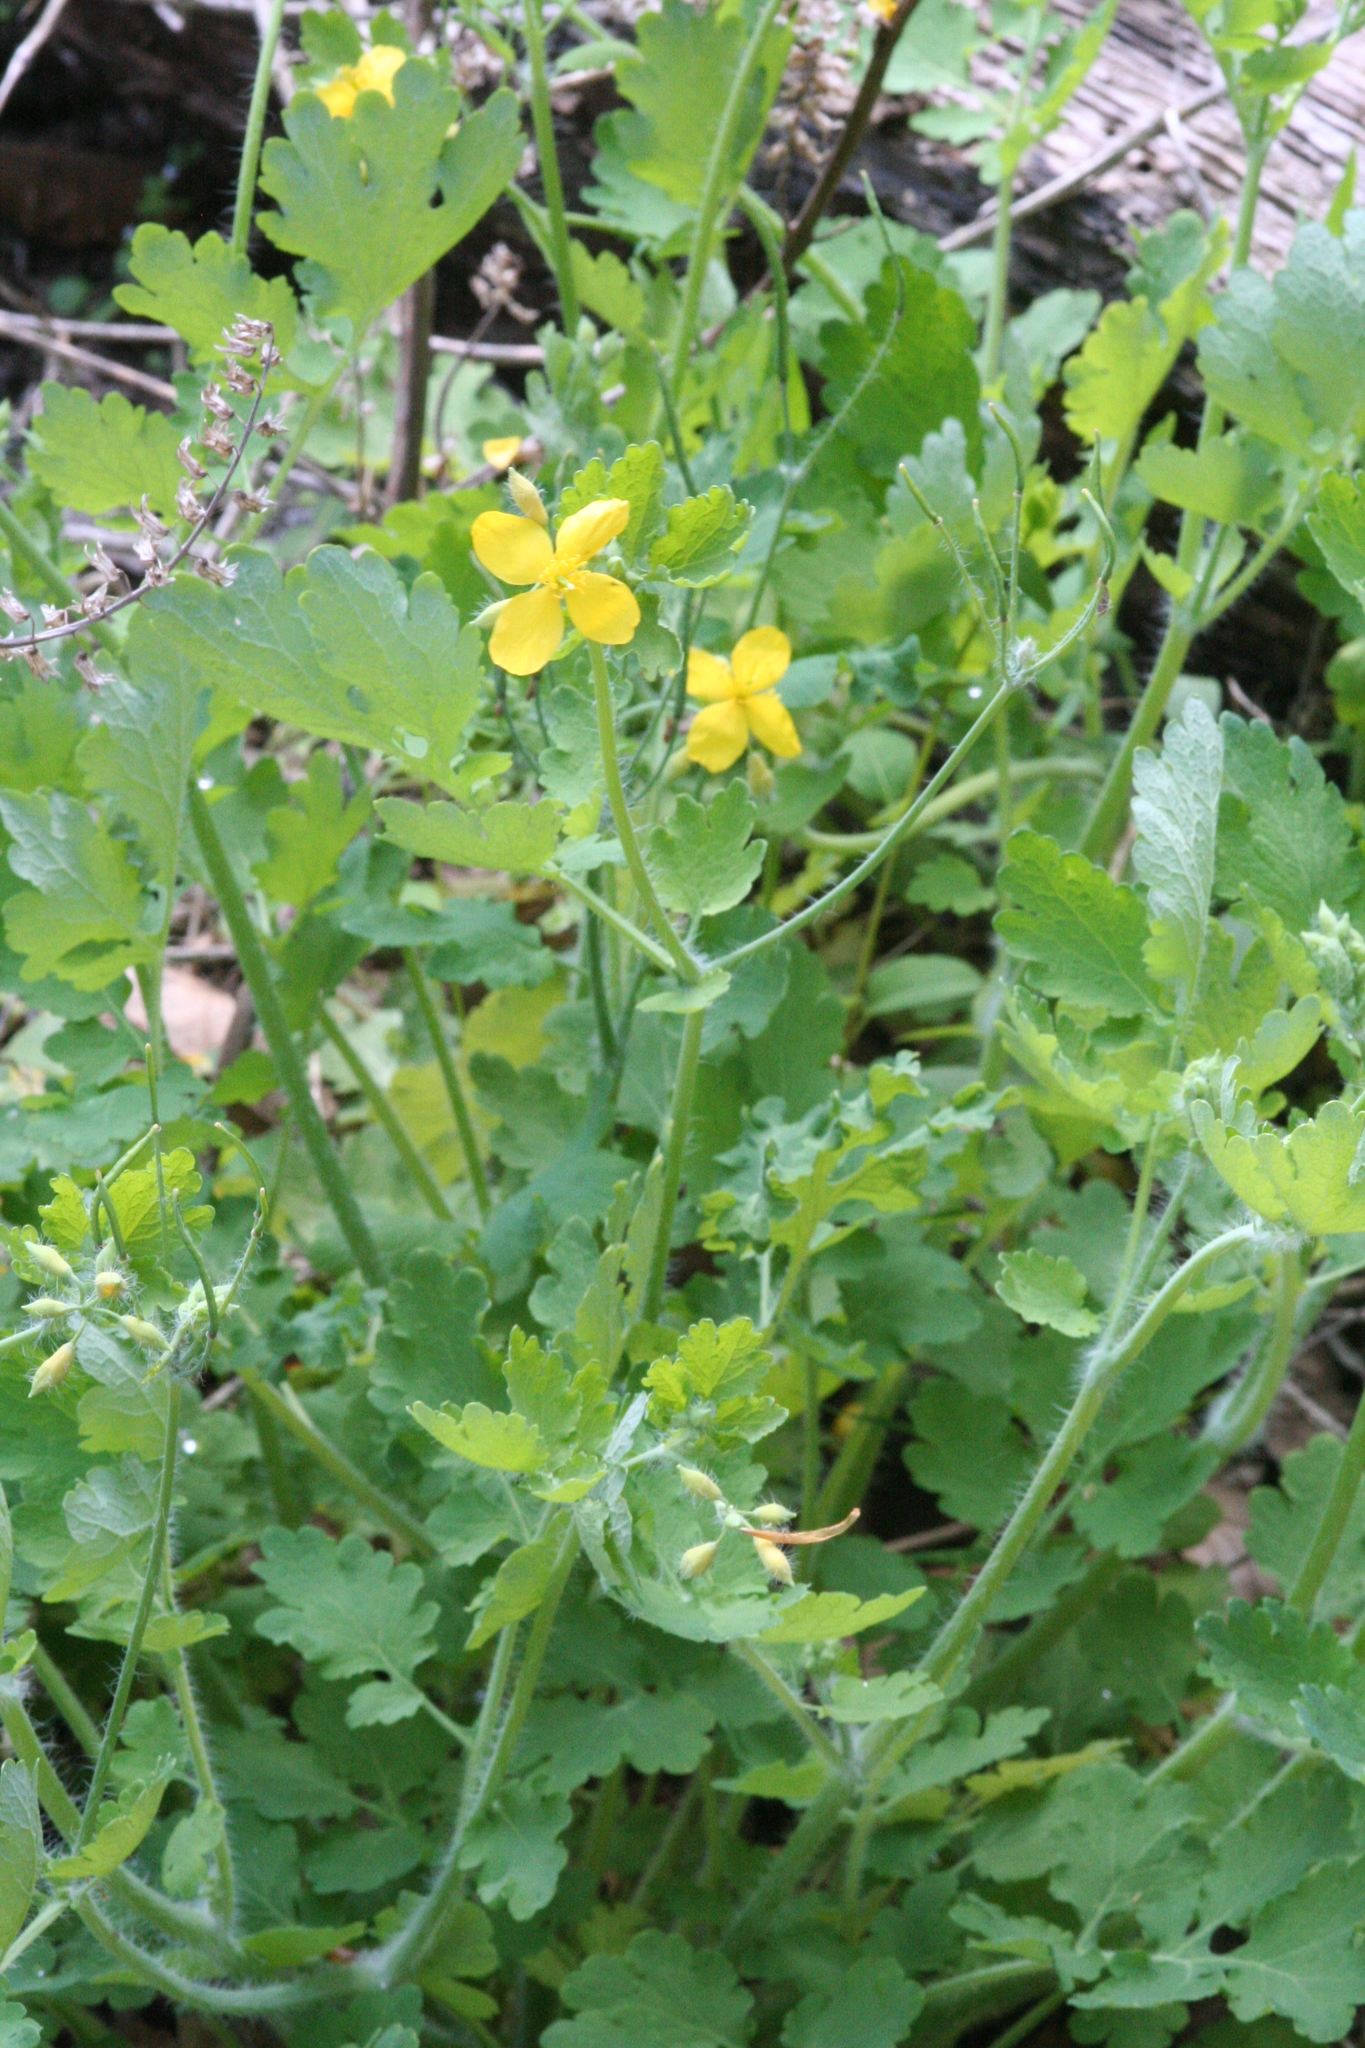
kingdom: Plantae
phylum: Tracheophyta
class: Magnoliopsida
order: Ranunculales
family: Papaveraceae
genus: Chelidonium
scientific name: Chelidonium majus
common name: Greater celandine
